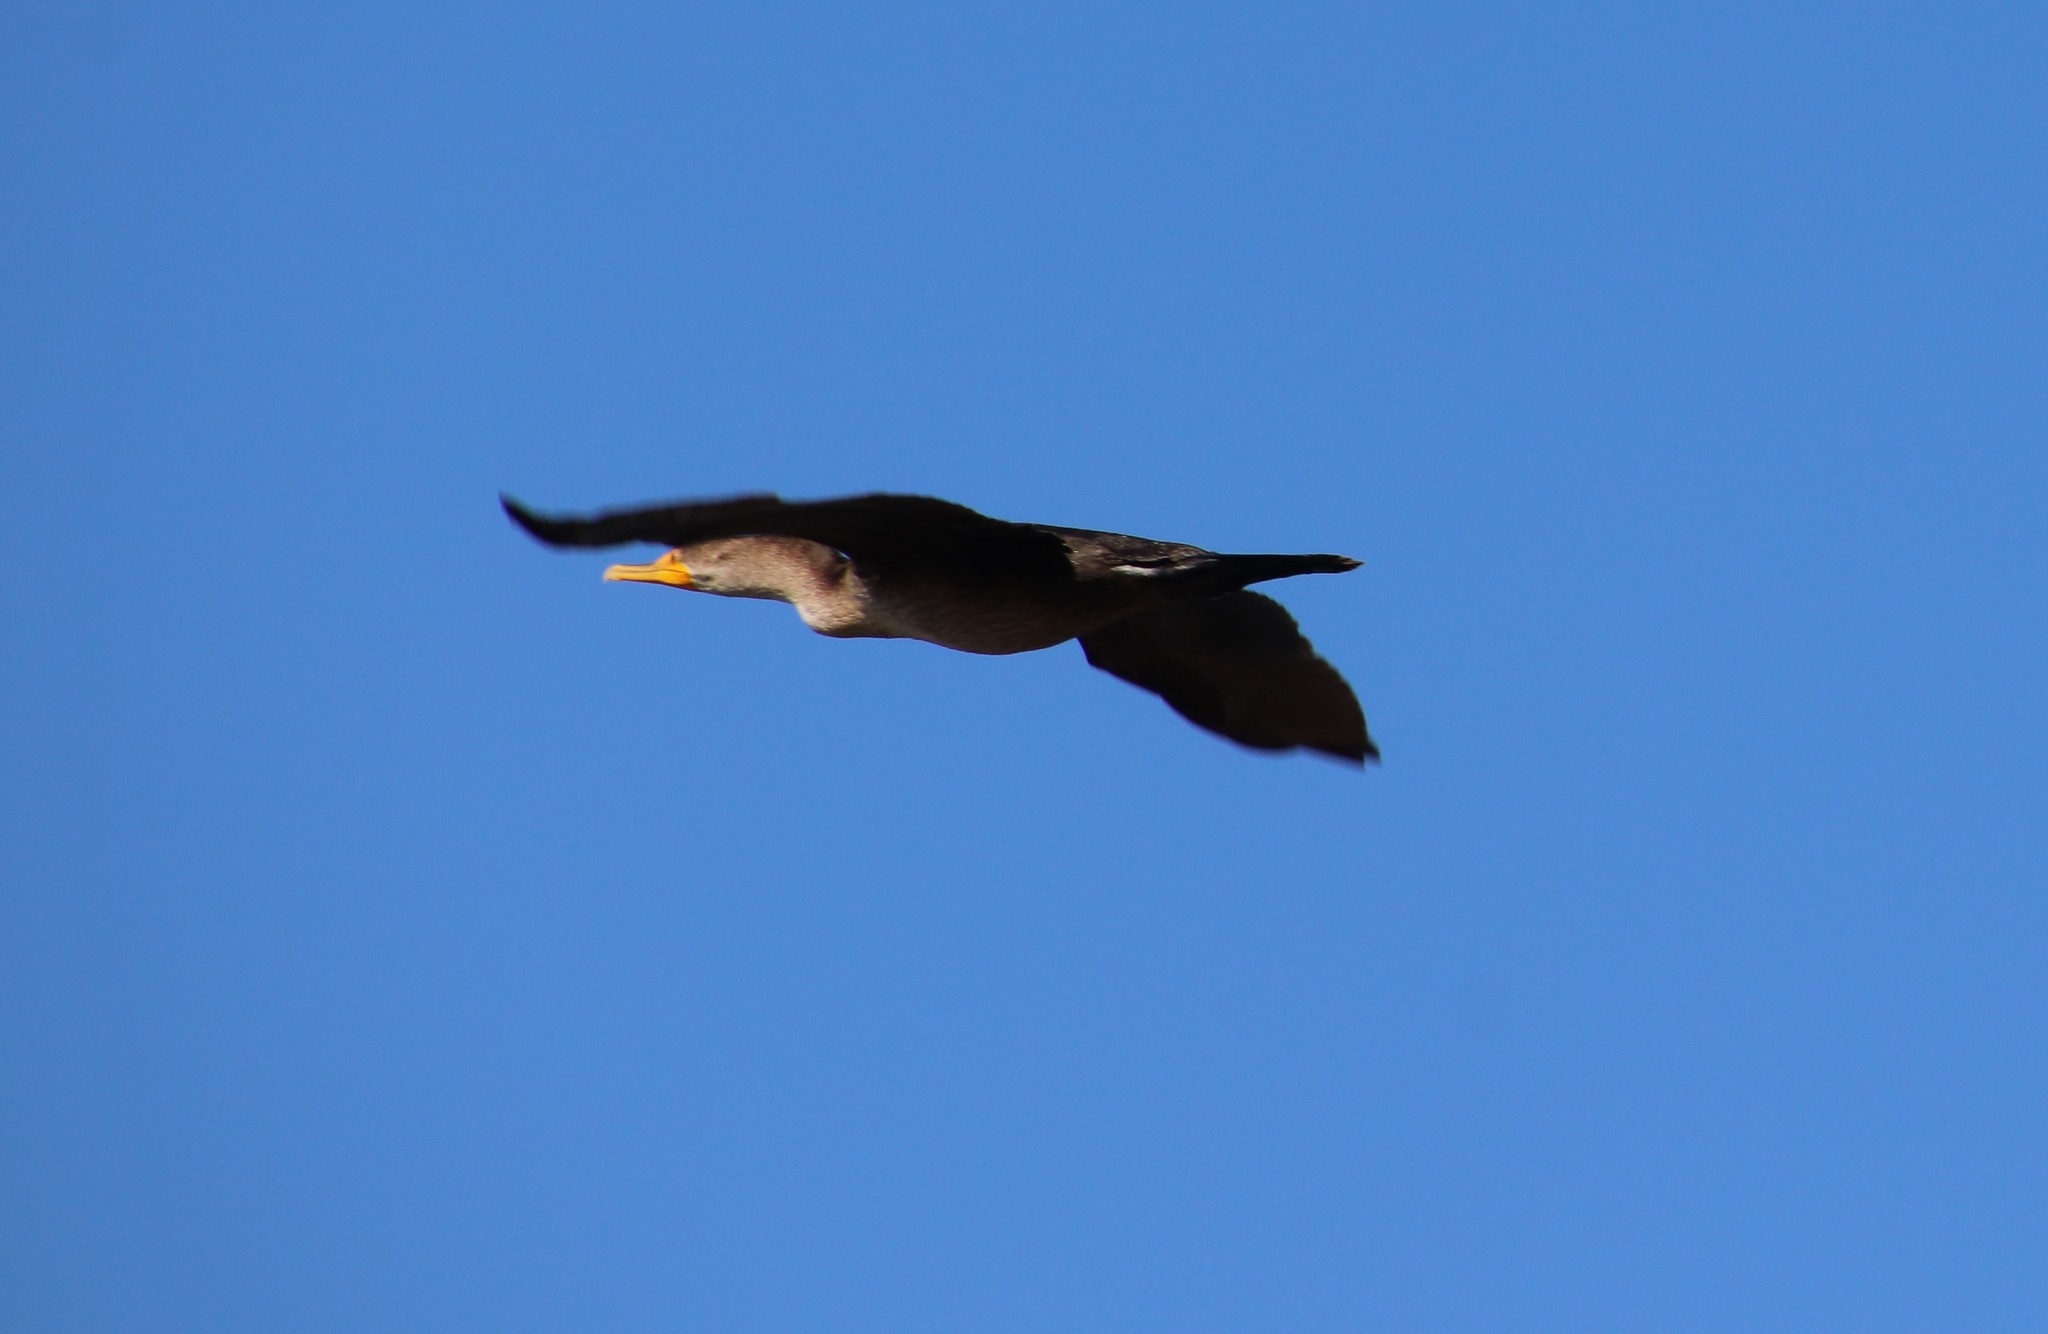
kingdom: Animalia
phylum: Chordata
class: Aves
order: Suliformes
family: Phalacrocoracidae
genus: Phalacrocorax
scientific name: Phalacrocorax auritus
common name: Double-crested cormorant
